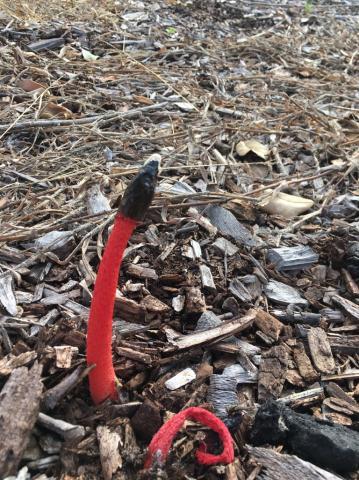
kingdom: Fungi
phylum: Basidiomycota
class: Agaricomycetes
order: Phallales
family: Phallaceae
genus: Phallus
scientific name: Phallus rubicundus
